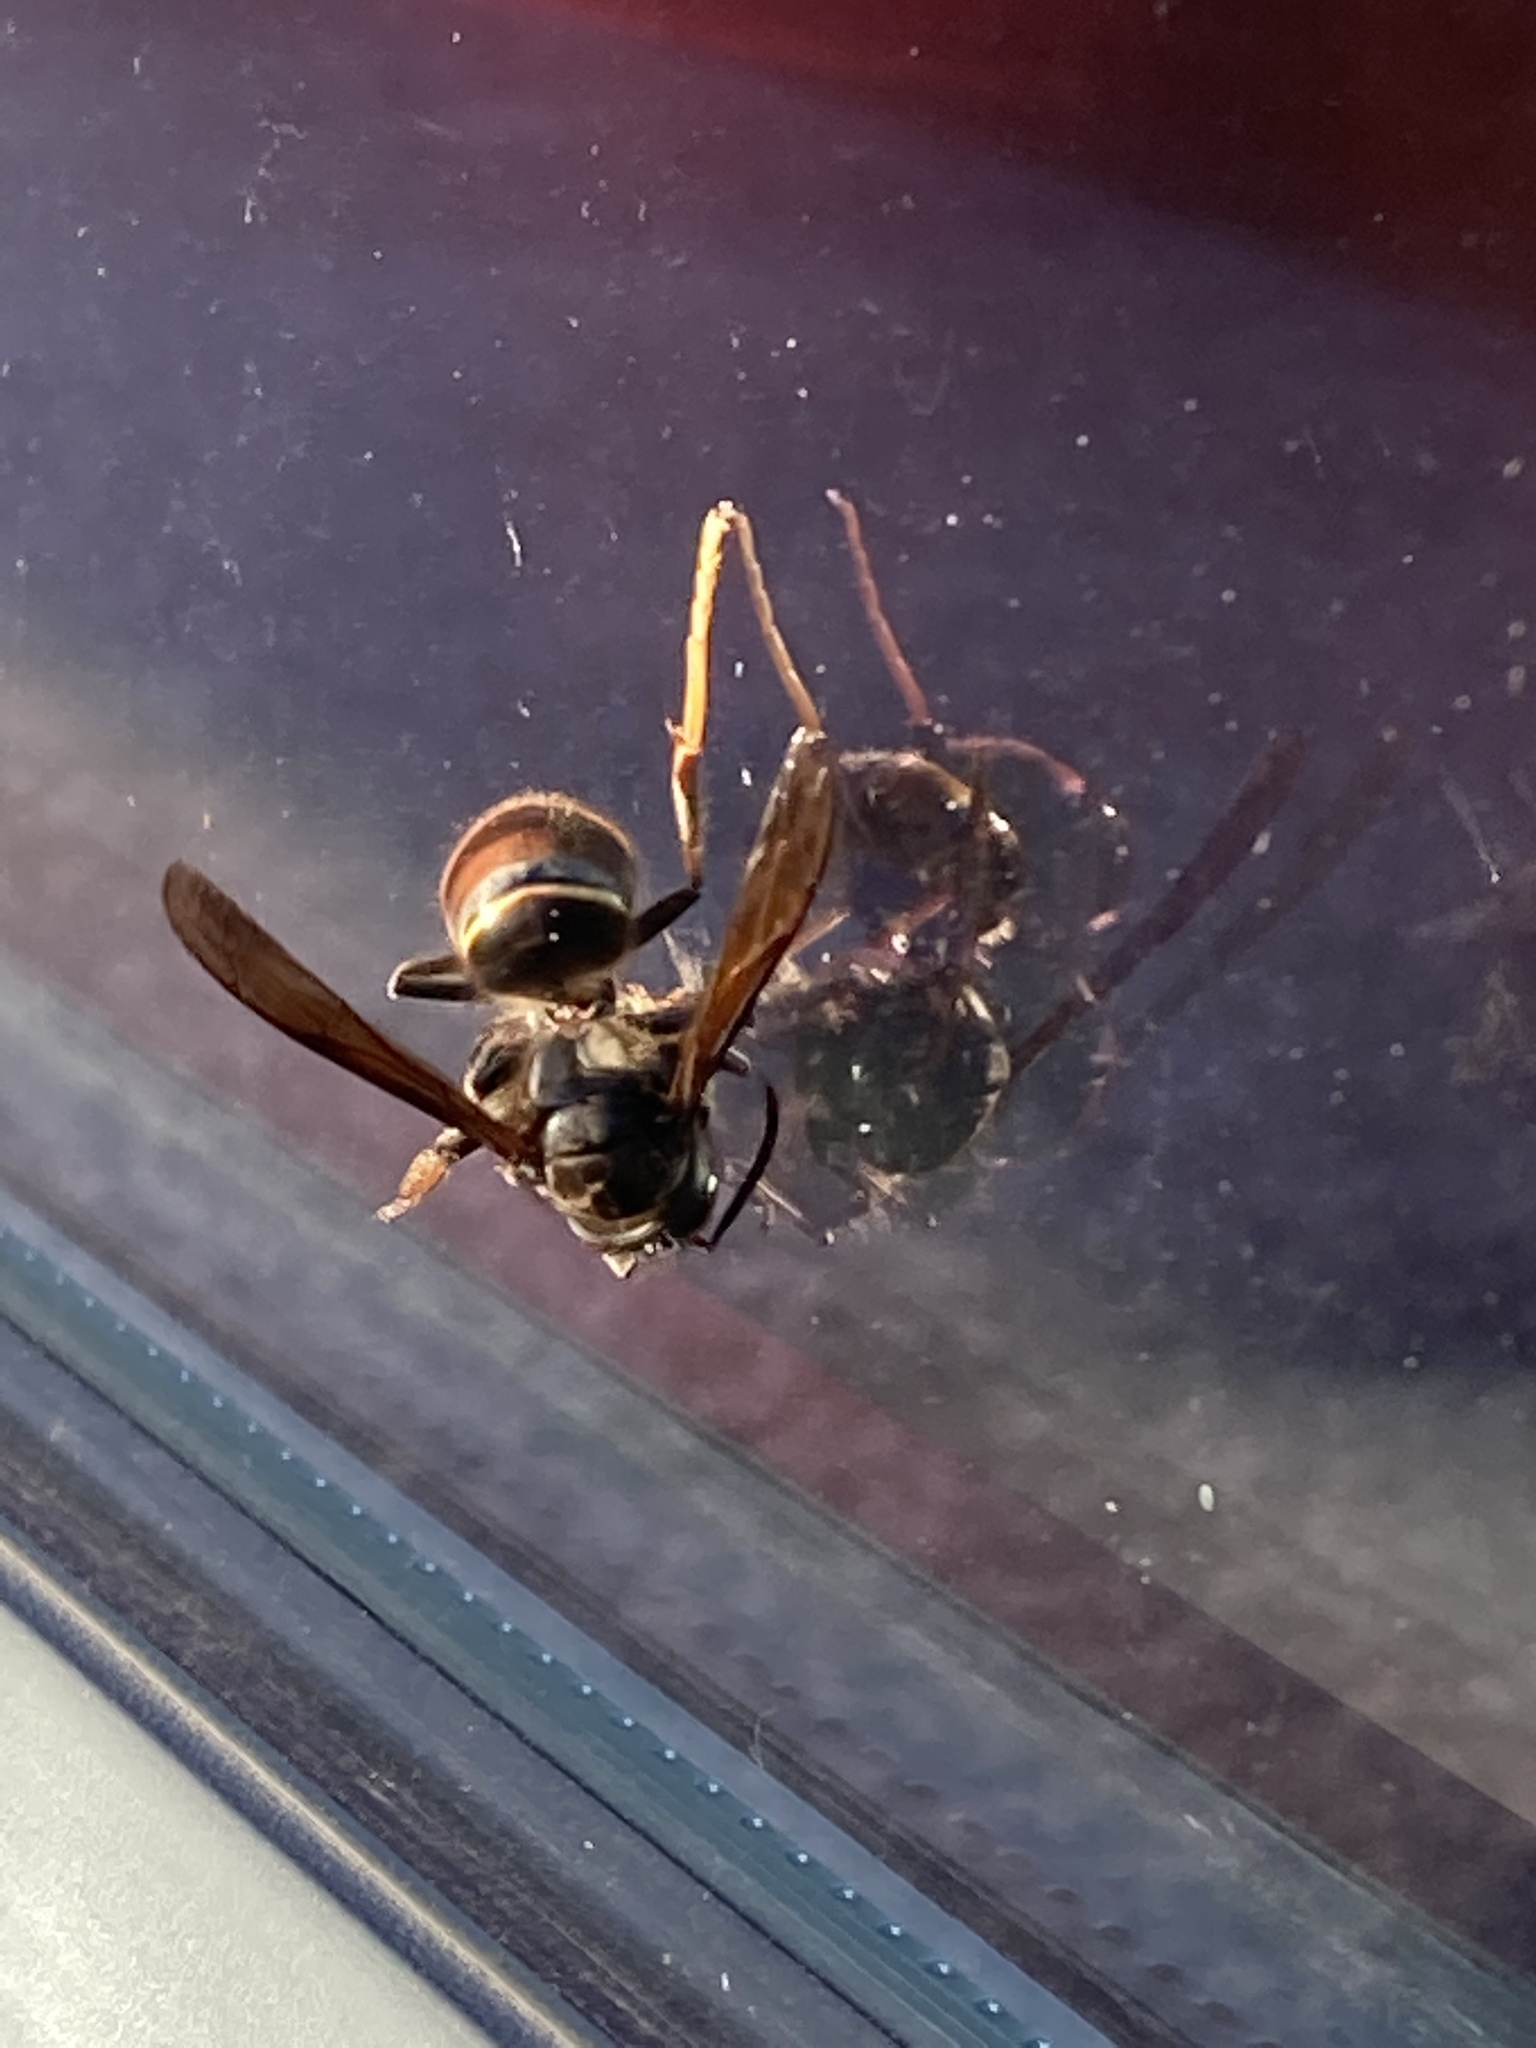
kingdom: Animalia
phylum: Arthropoda
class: Insecta
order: Hymenoptera
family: Vespidae
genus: Vespa
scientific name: Vespa velutina
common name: Asian hornet
